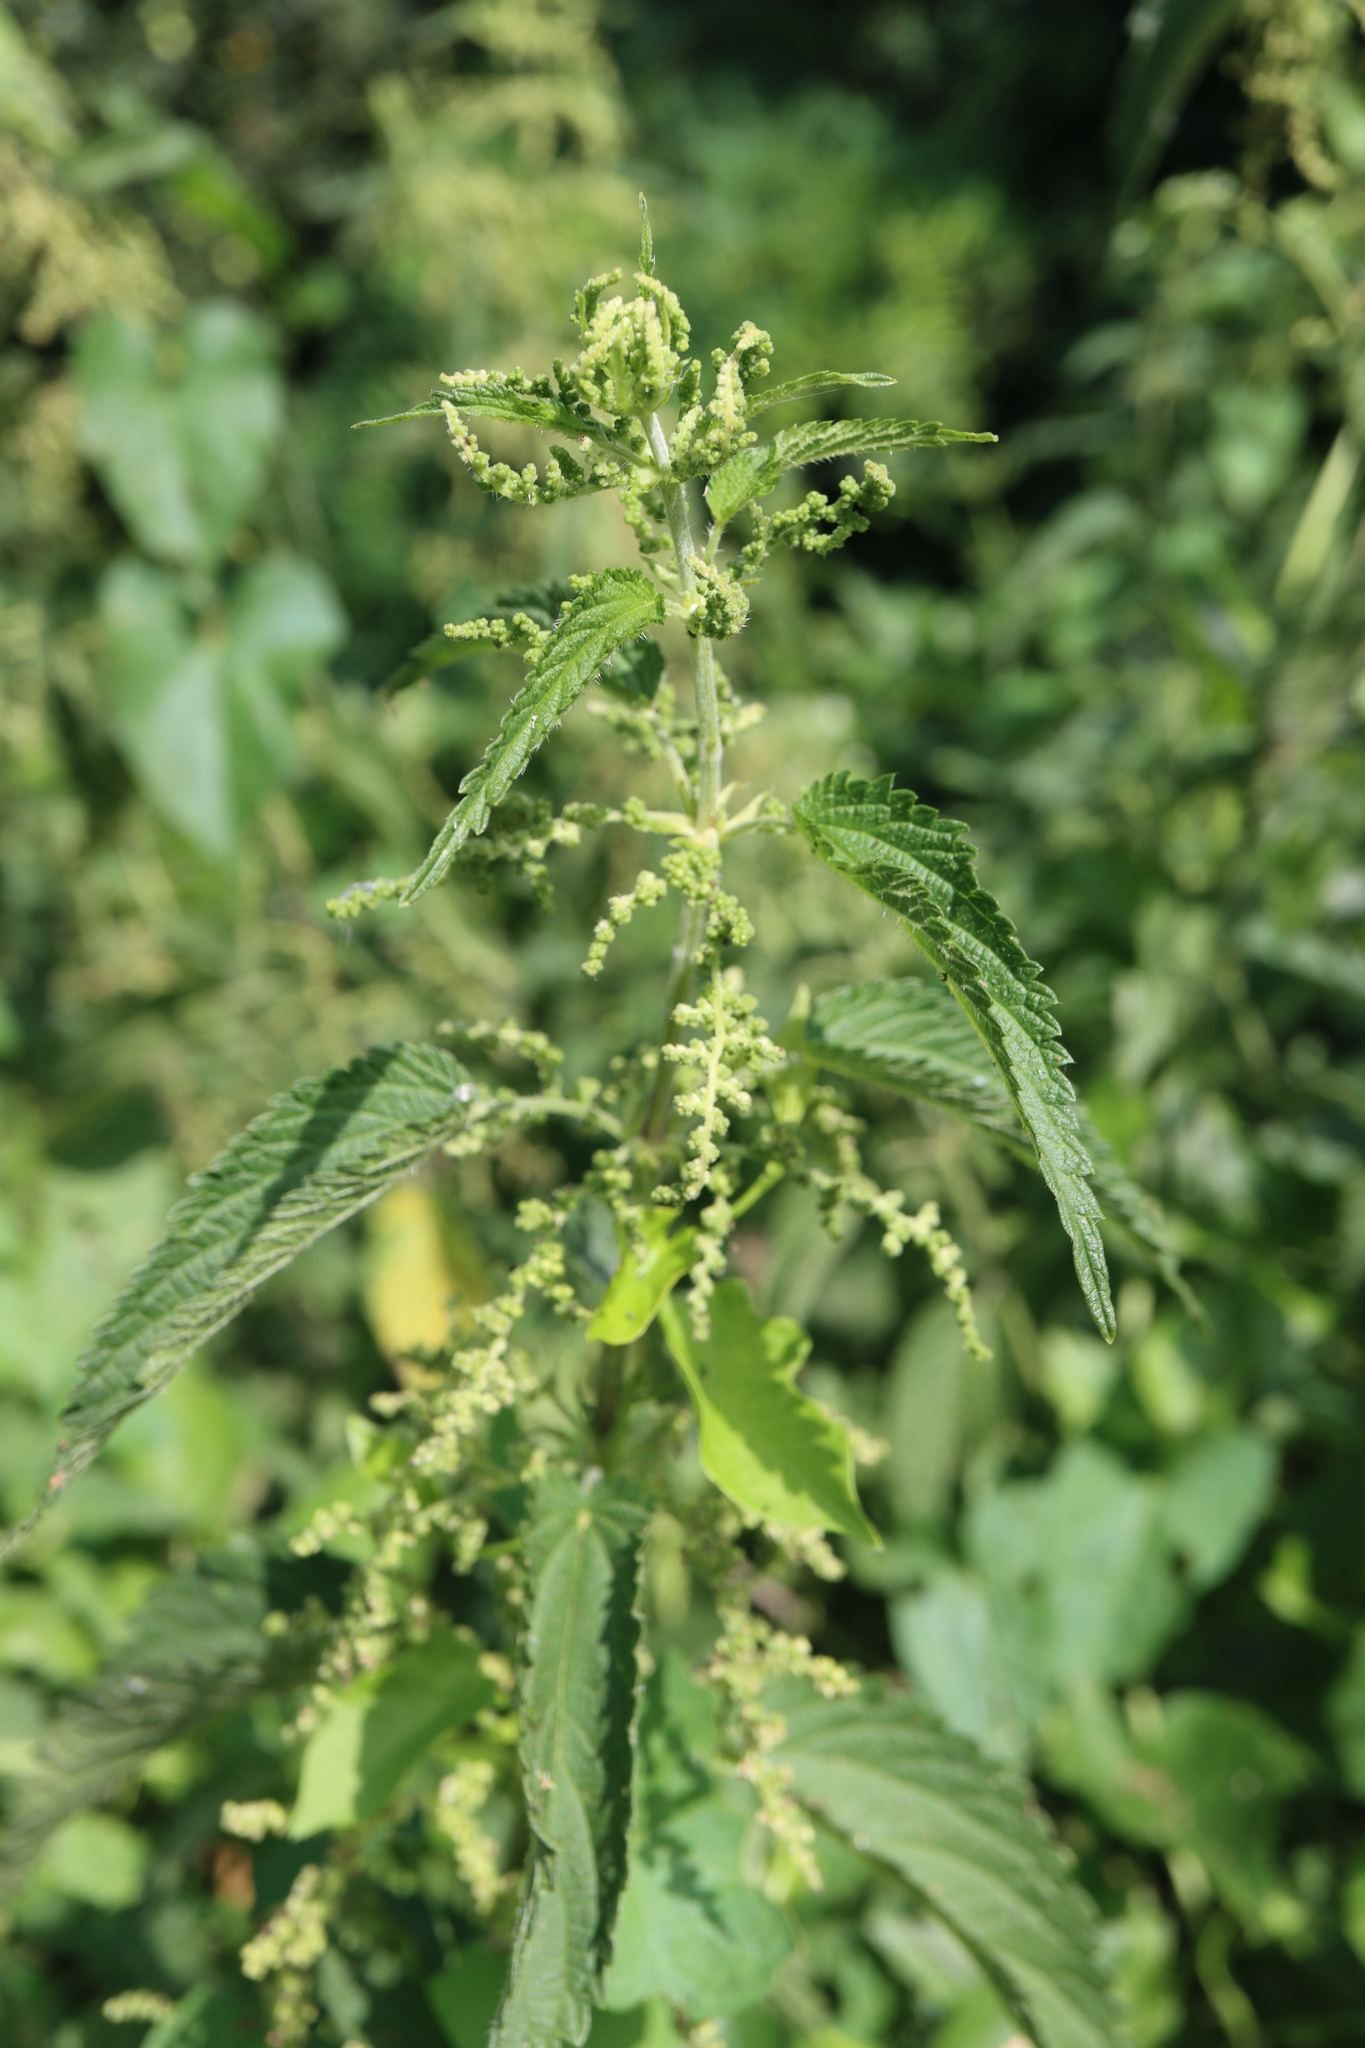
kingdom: Plantae
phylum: Tracheophyta
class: Magnoliopsida
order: Rosales
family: Urticaceae
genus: Urtica
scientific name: Urtica dioica
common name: Common nettle
